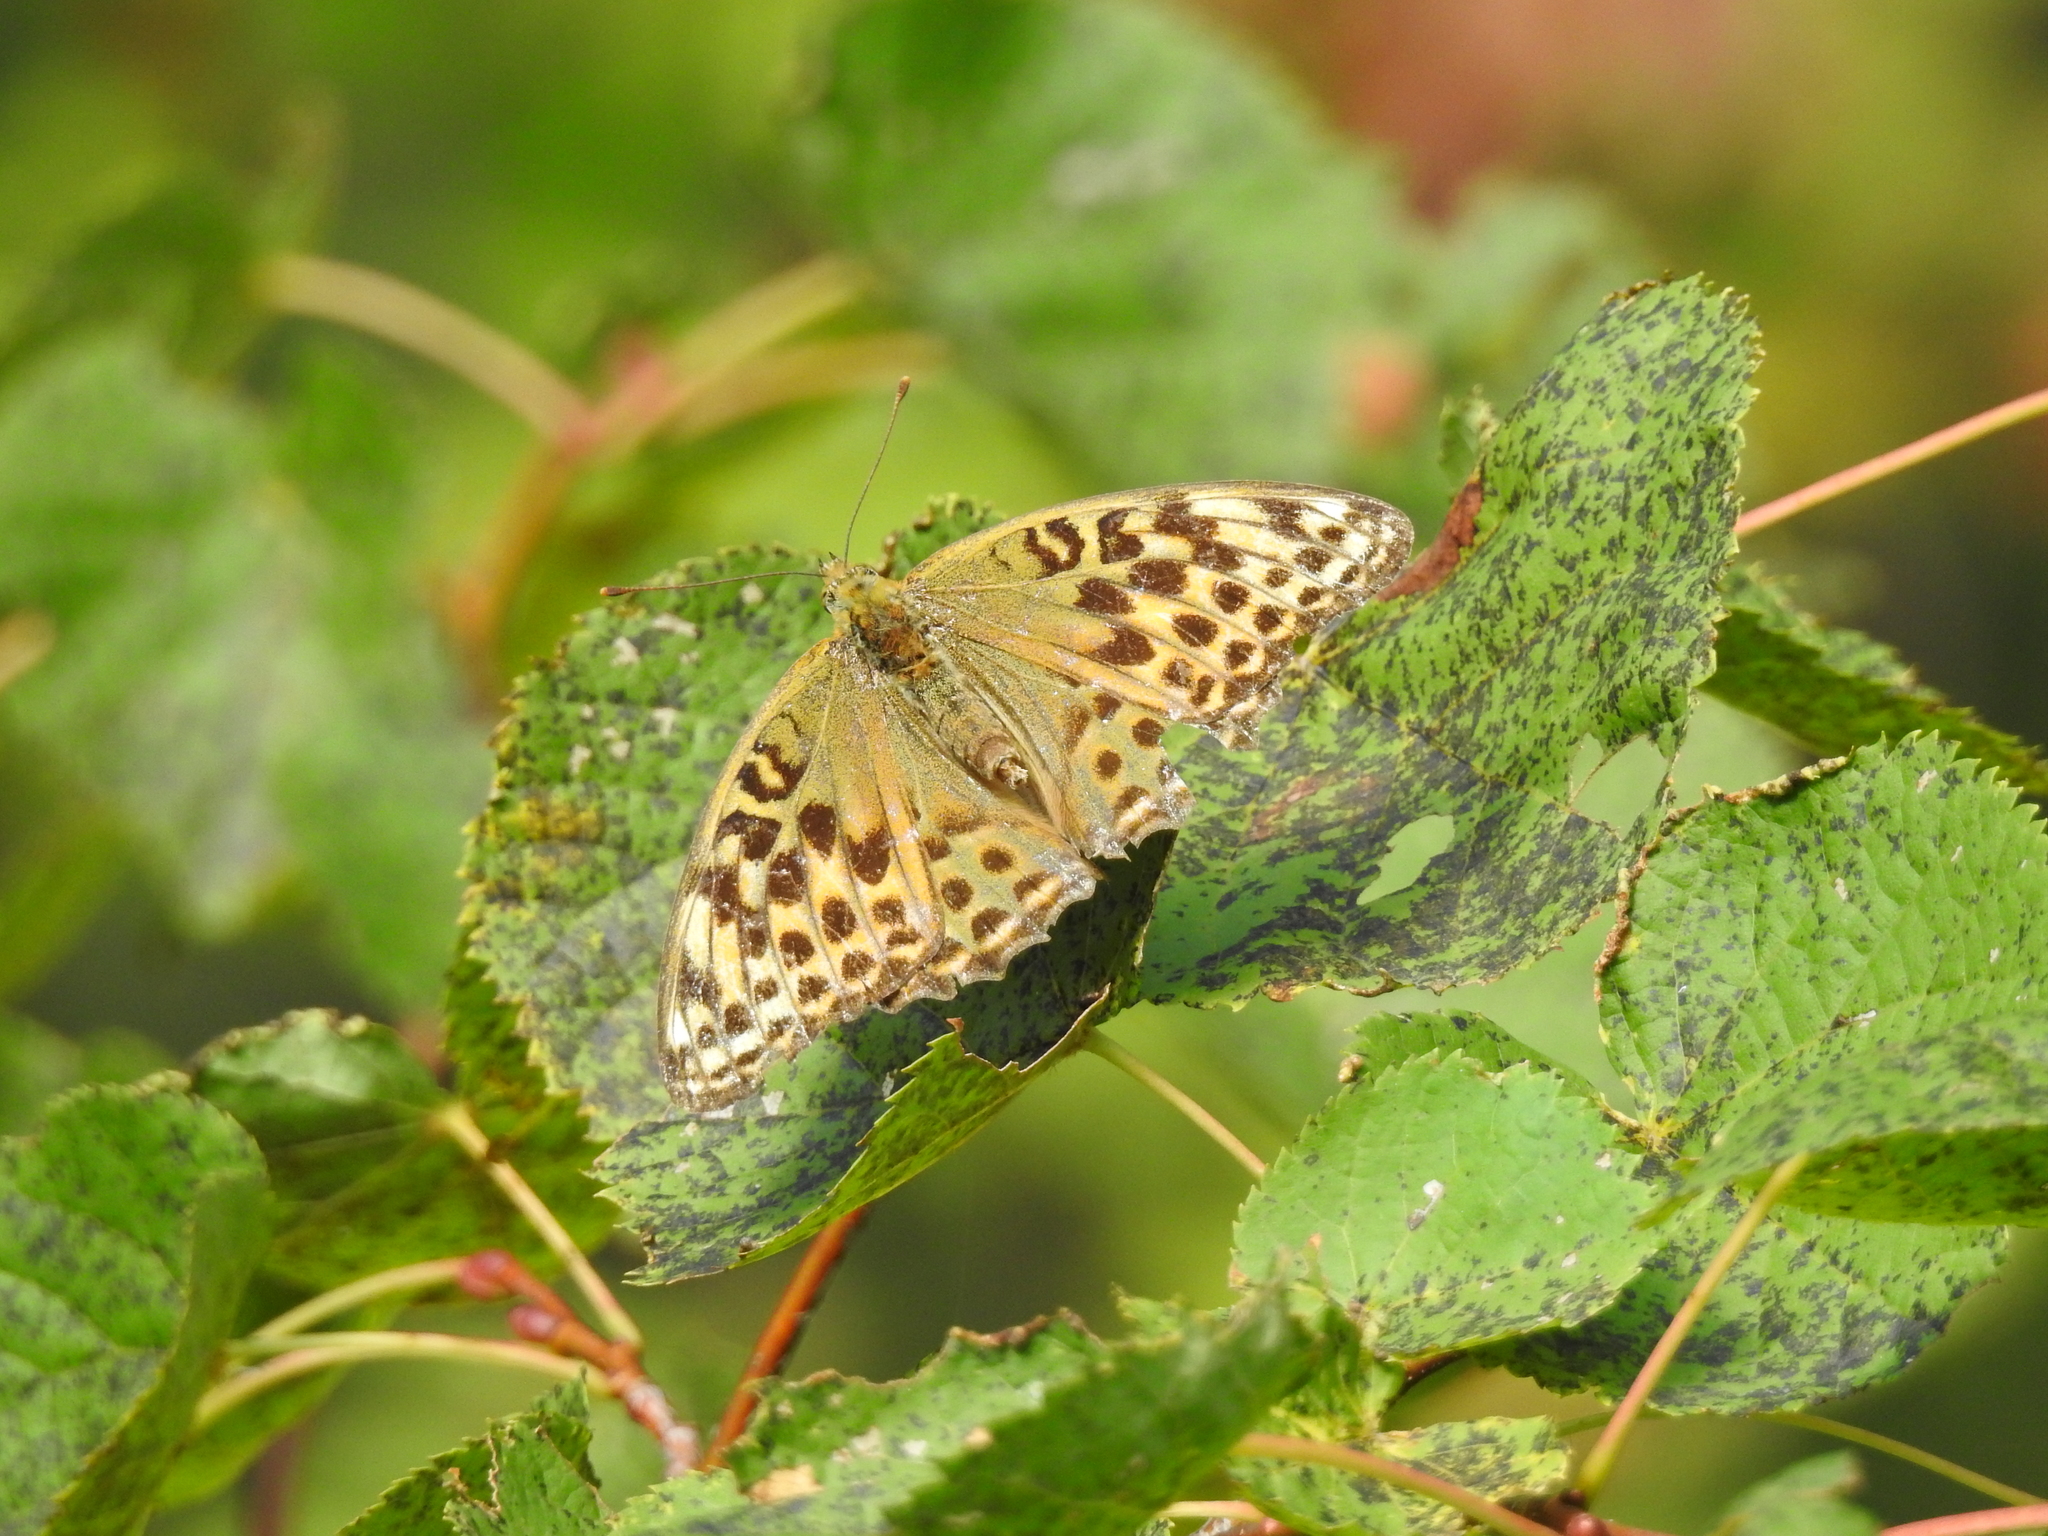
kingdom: Animalia
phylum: Arthropoda
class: Insecta
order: Lepidoptera
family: Nymphalidae
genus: Argynnis
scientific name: Argynnis paphia
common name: Silver-washed fritillary
